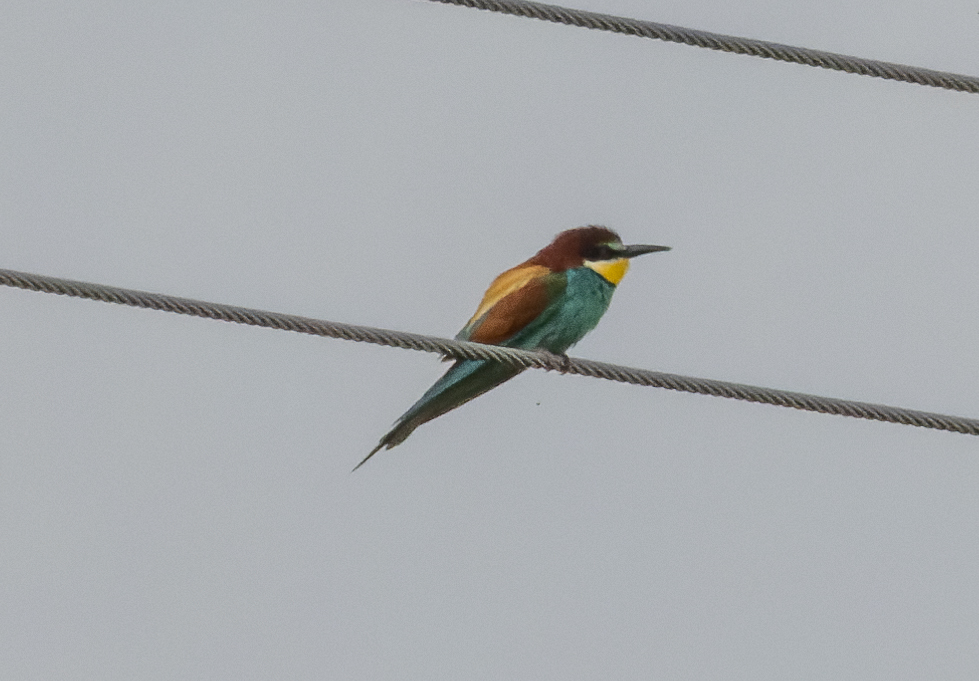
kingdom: Animalia
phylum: Chordata
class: Aves
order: Coraciiformes
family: Meropidae
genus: Merops
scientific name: Merops apiaster
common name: European bee-eater
